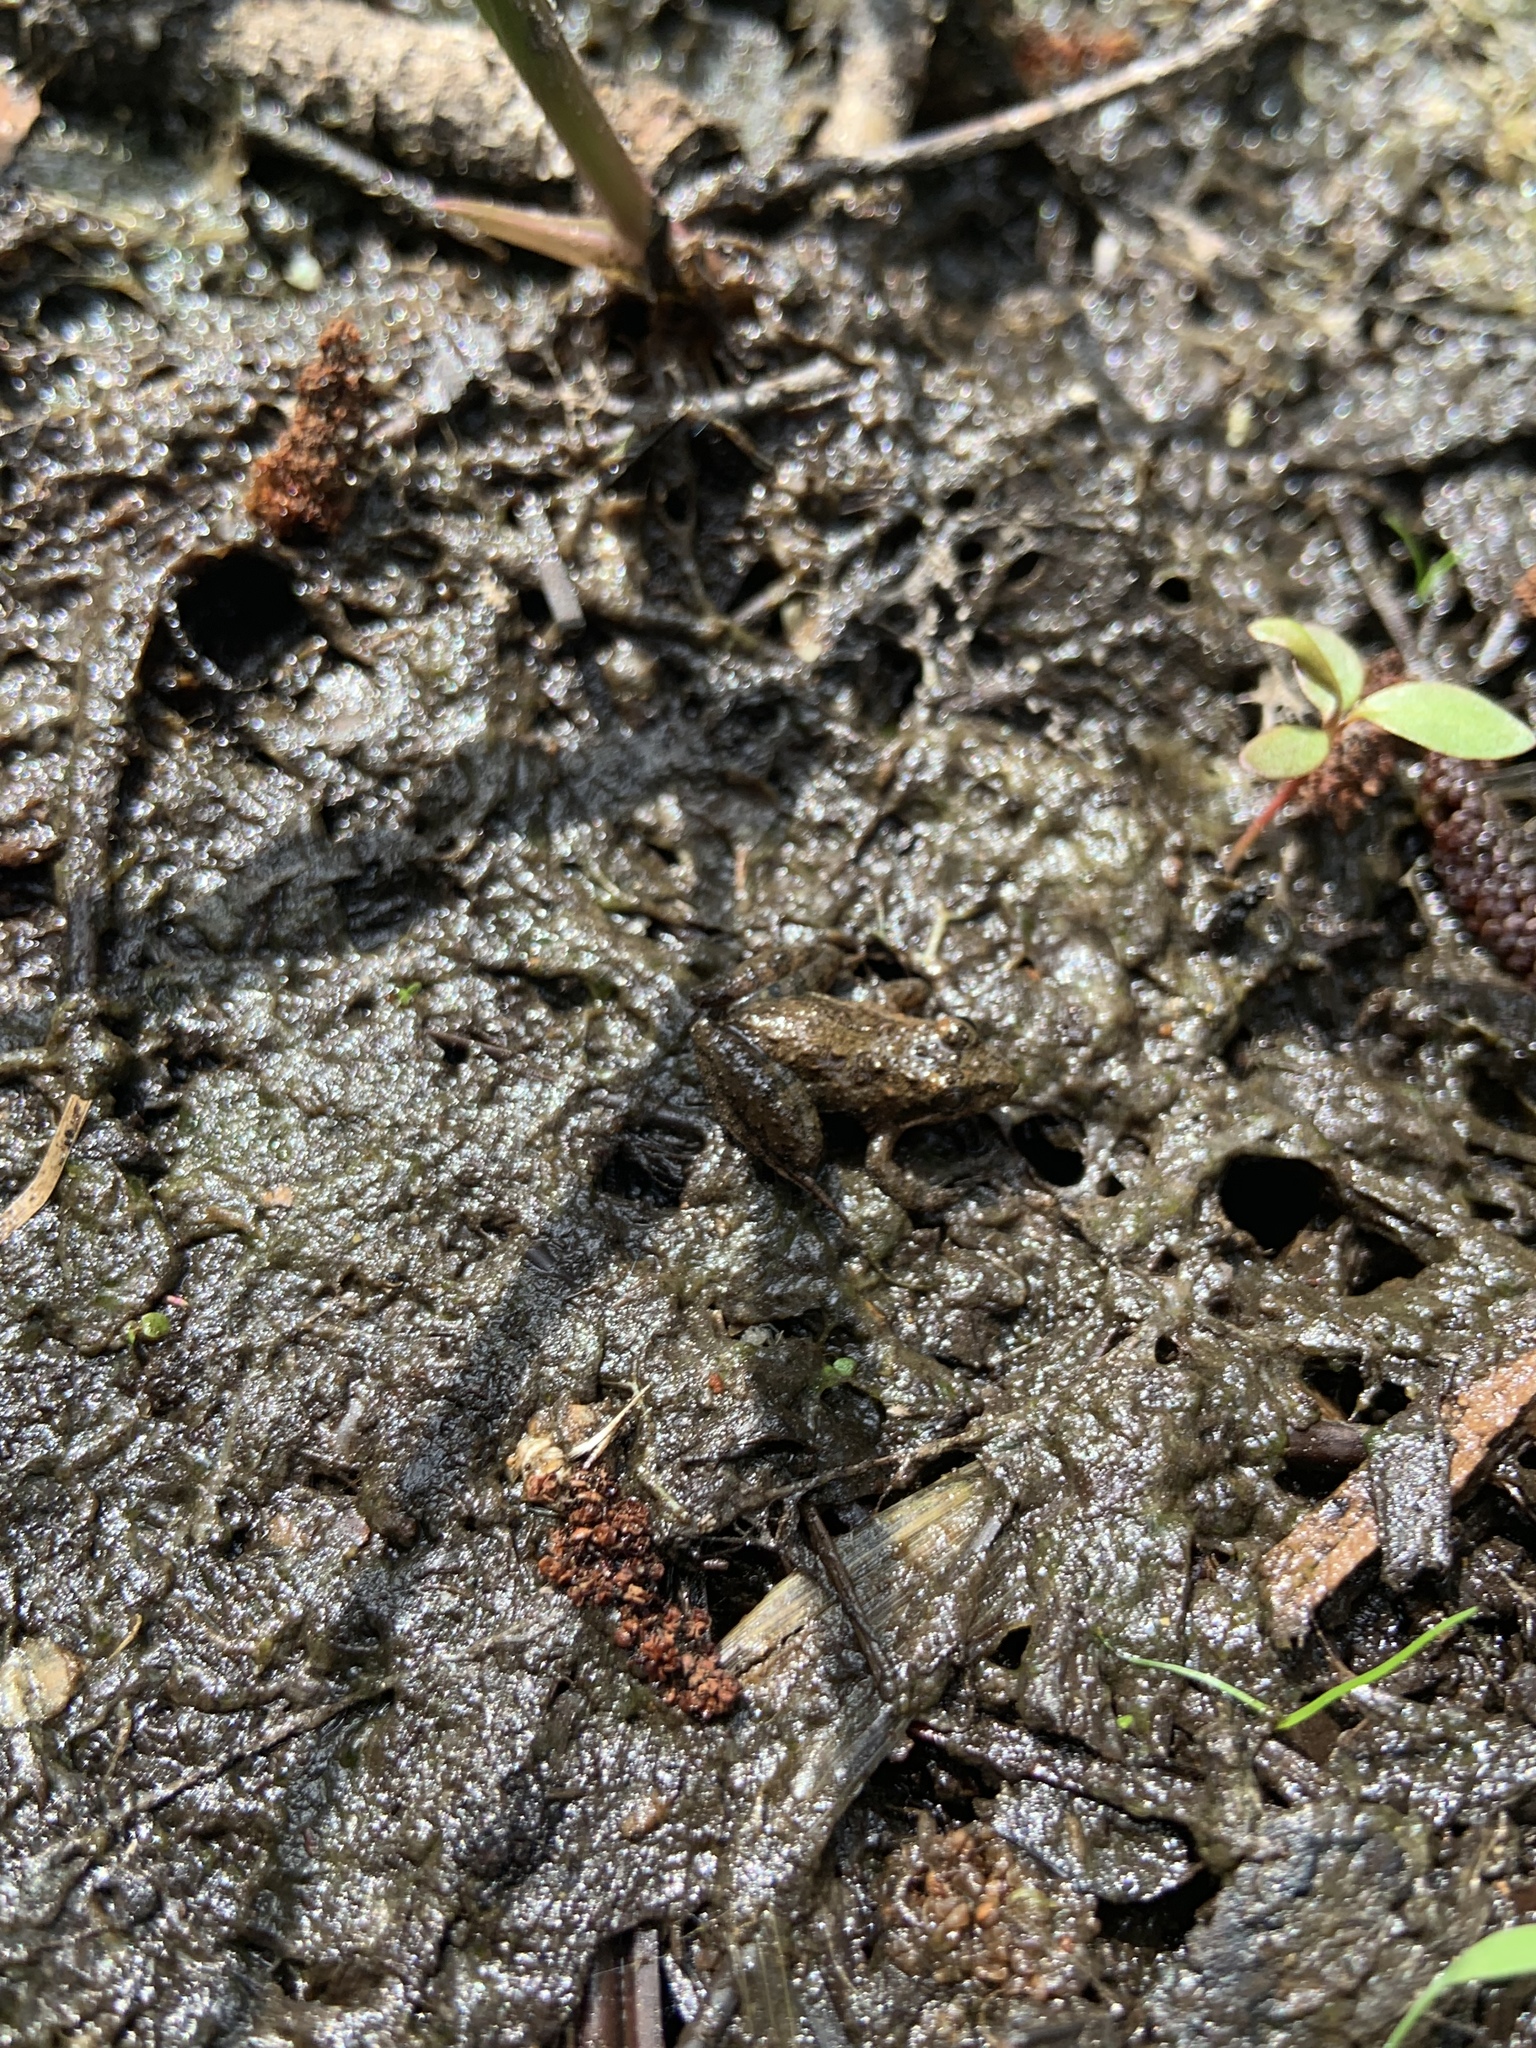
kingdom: Animalia
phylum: Chordata
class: Amphibia
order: Anura
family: Hylidae
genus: Acris
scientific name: Acris gryllus
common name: Southern cricket frog
